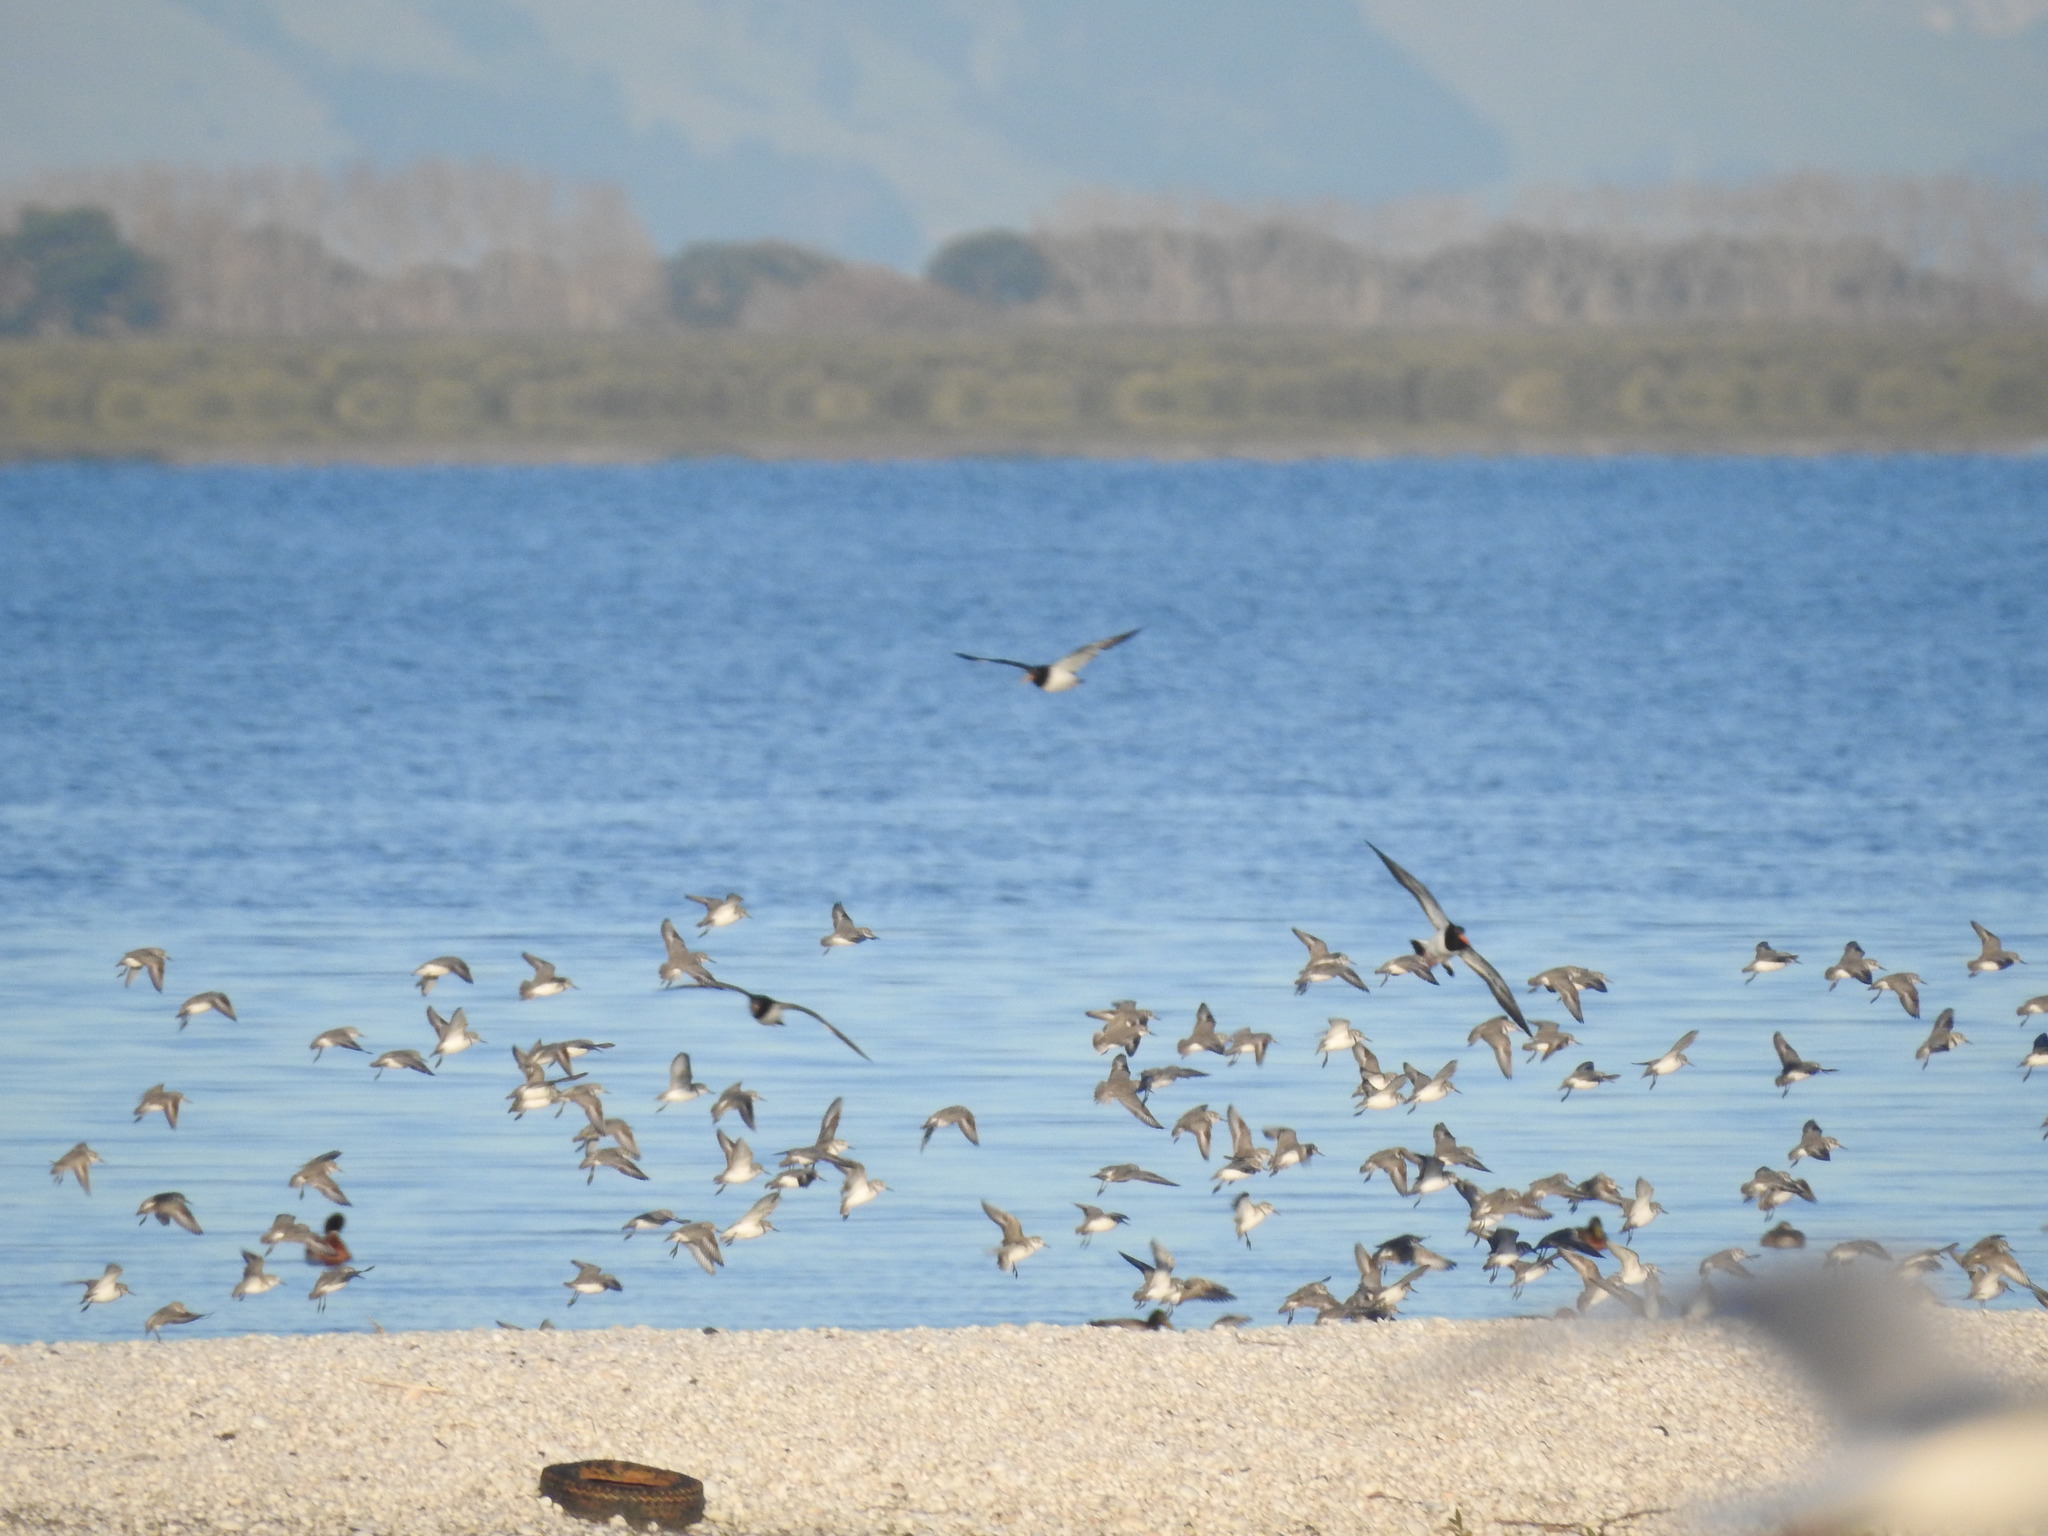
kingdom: Animalia
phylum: Chordata
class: Aves
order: Charadriiformes
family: Charadriidae
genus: Anarhynchus
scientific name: Anarhynchus frontalis
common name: Wrybill
